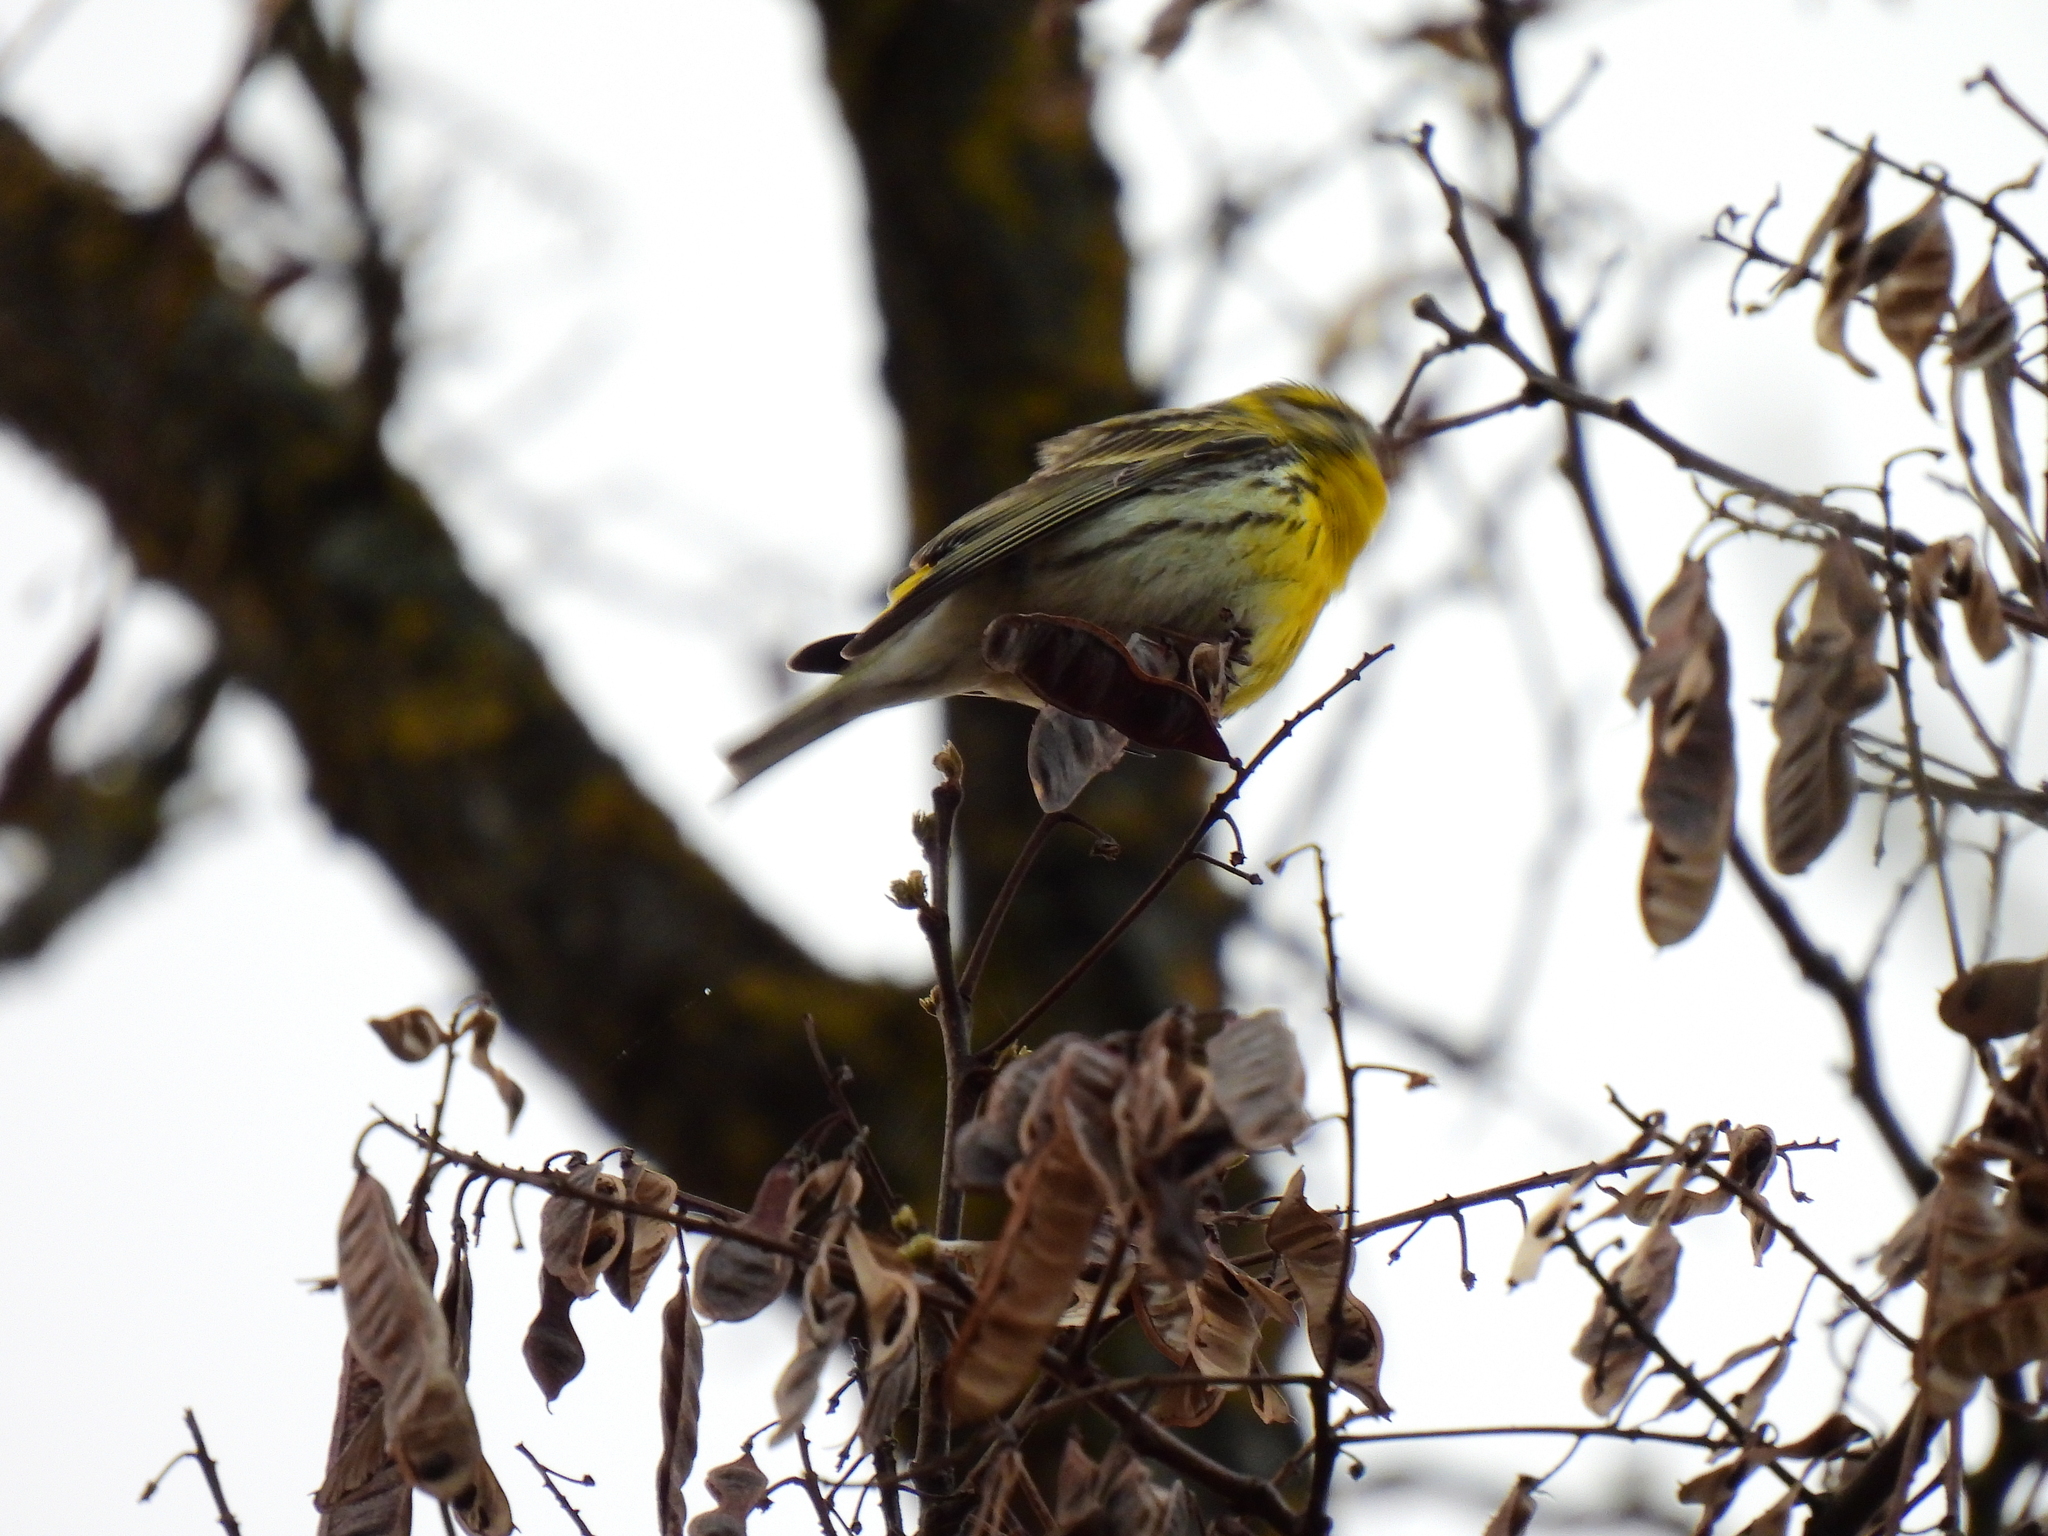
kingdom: Animalia
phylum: Chordata
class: Aves
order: Passeriformes
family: Fringillidae
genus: Serinus
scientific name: Serinus serinus
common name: European serin
